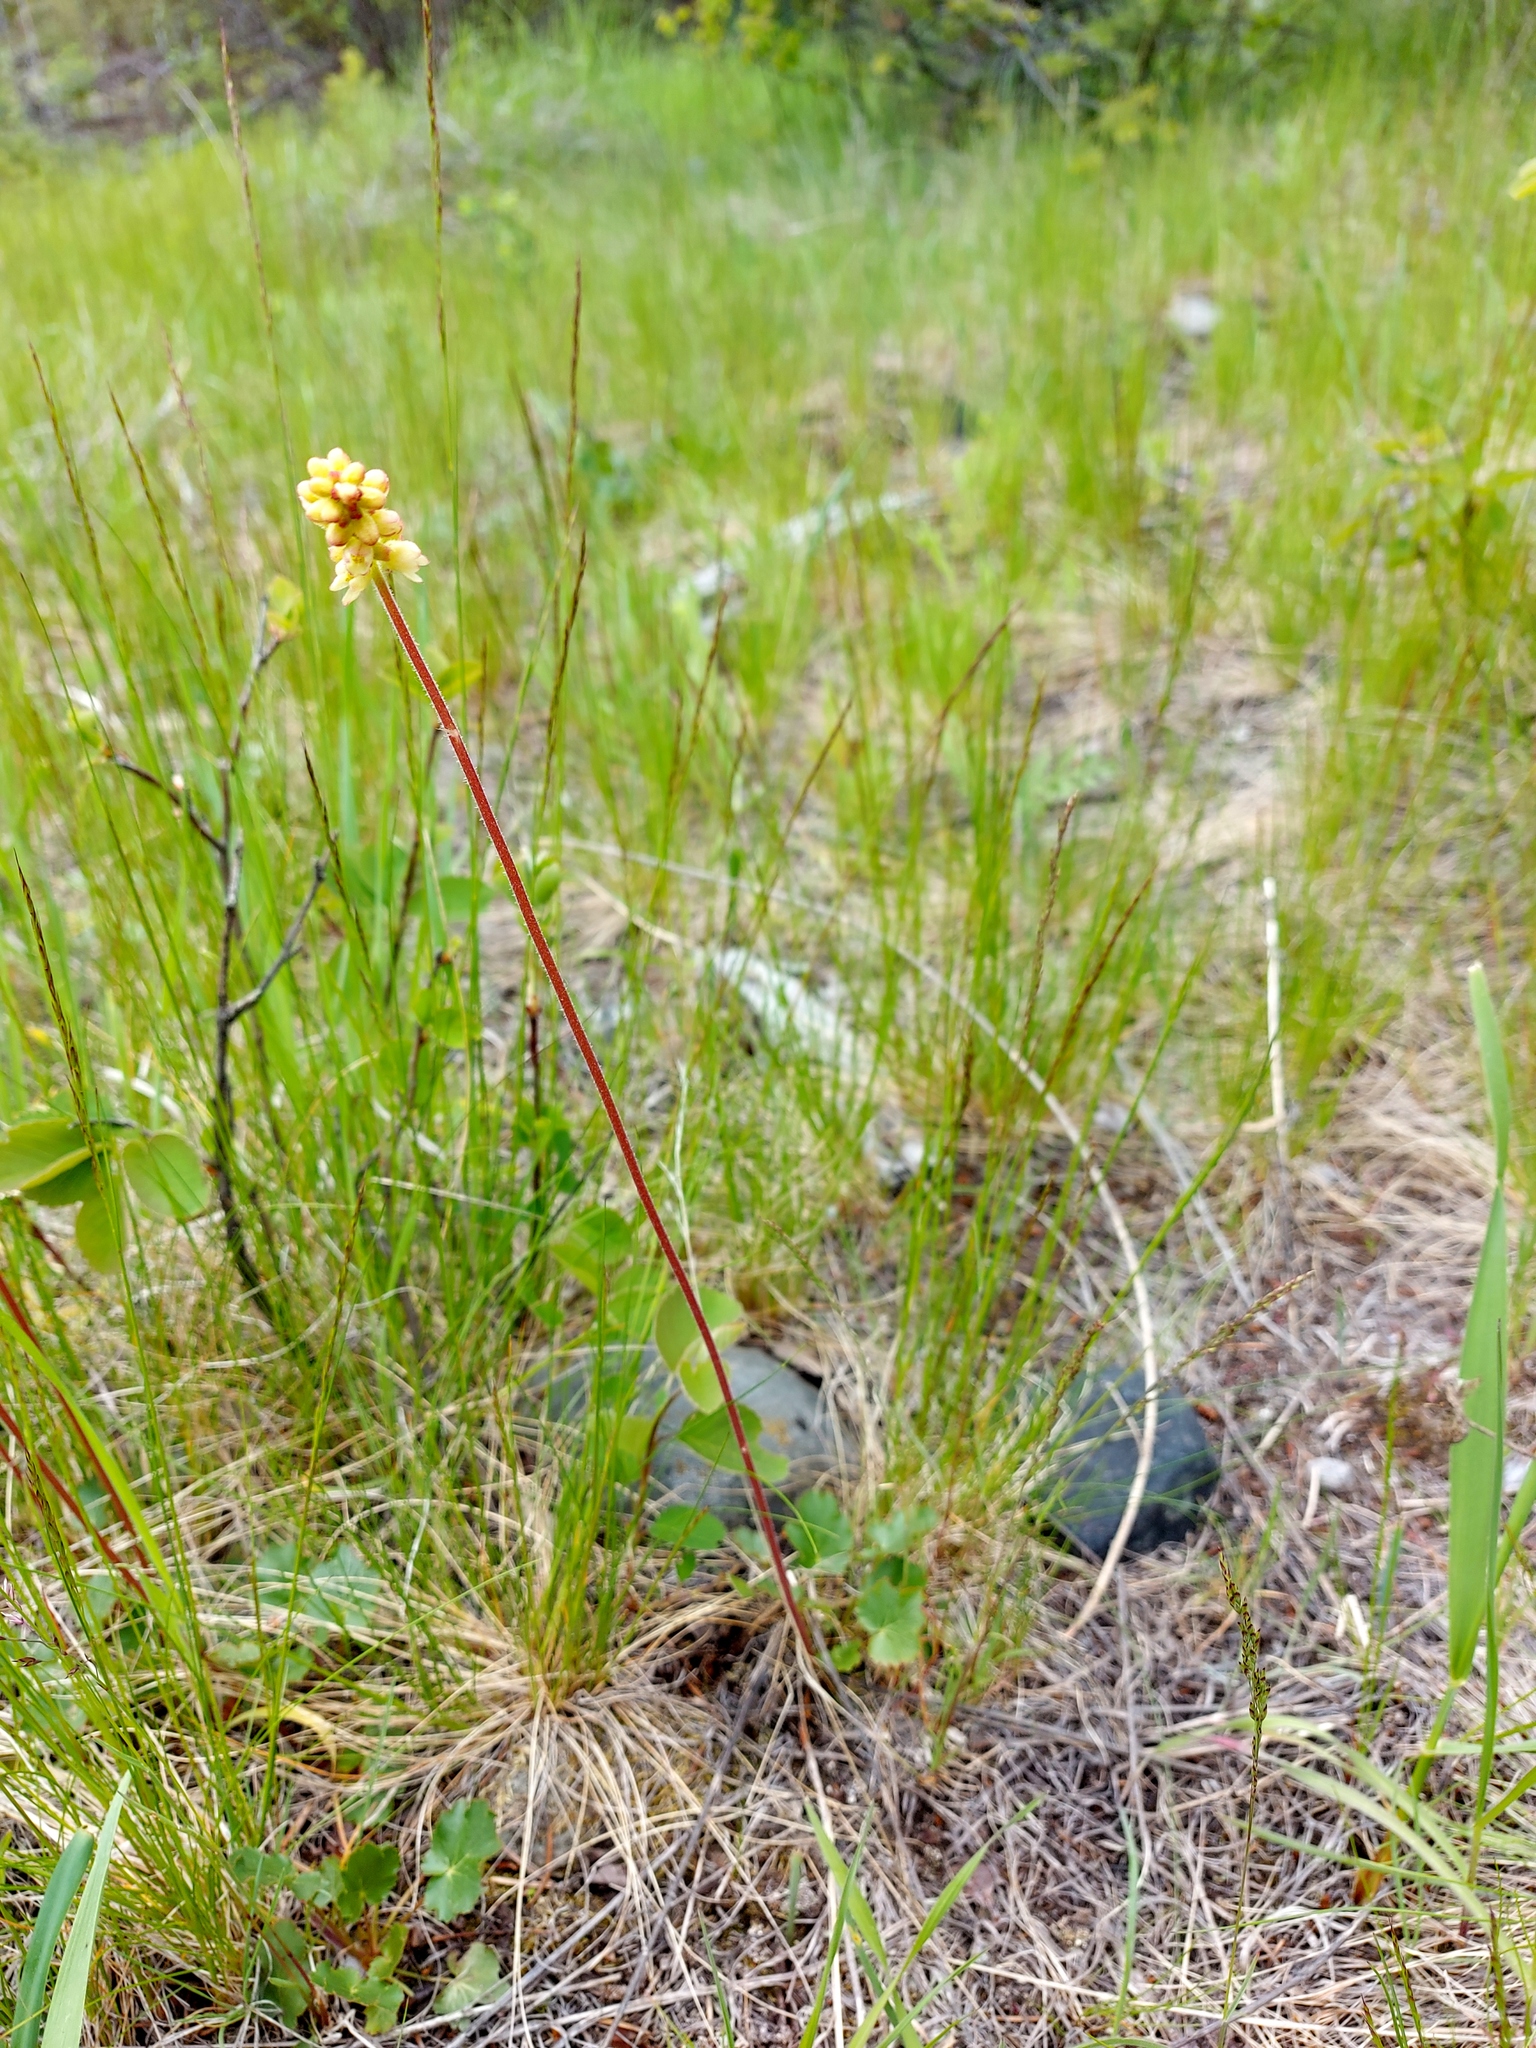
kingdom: Plantae
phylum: Tracheophyta
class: Magnoliopsida
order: Saxifragales
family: Saxifragaceae
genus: Heuchera
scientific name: Heuchera cylindrica
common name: Mat alumroot
